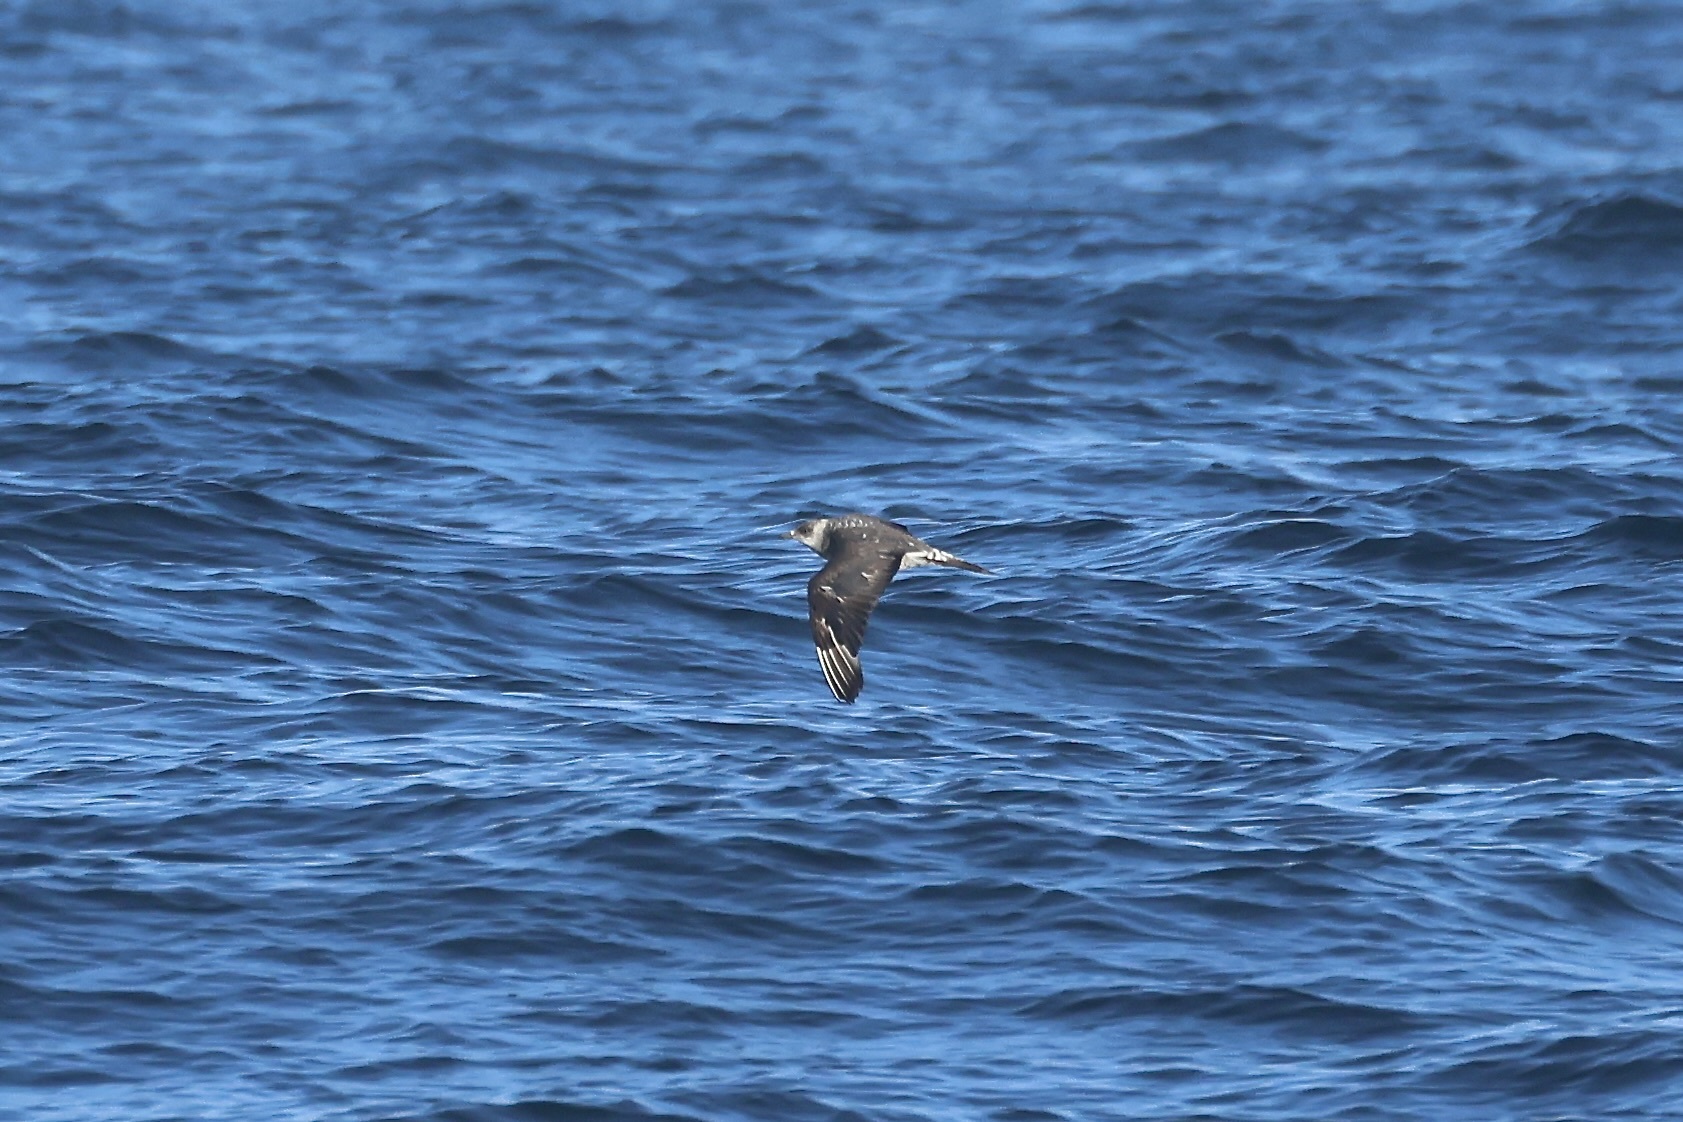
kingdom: Animalia
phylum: Chordata
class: Aves
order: Charadriiformes
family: Stercorariidae
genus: Stercorarius
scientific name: Stercorarius parasiticus
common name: Parasitic jaeger
